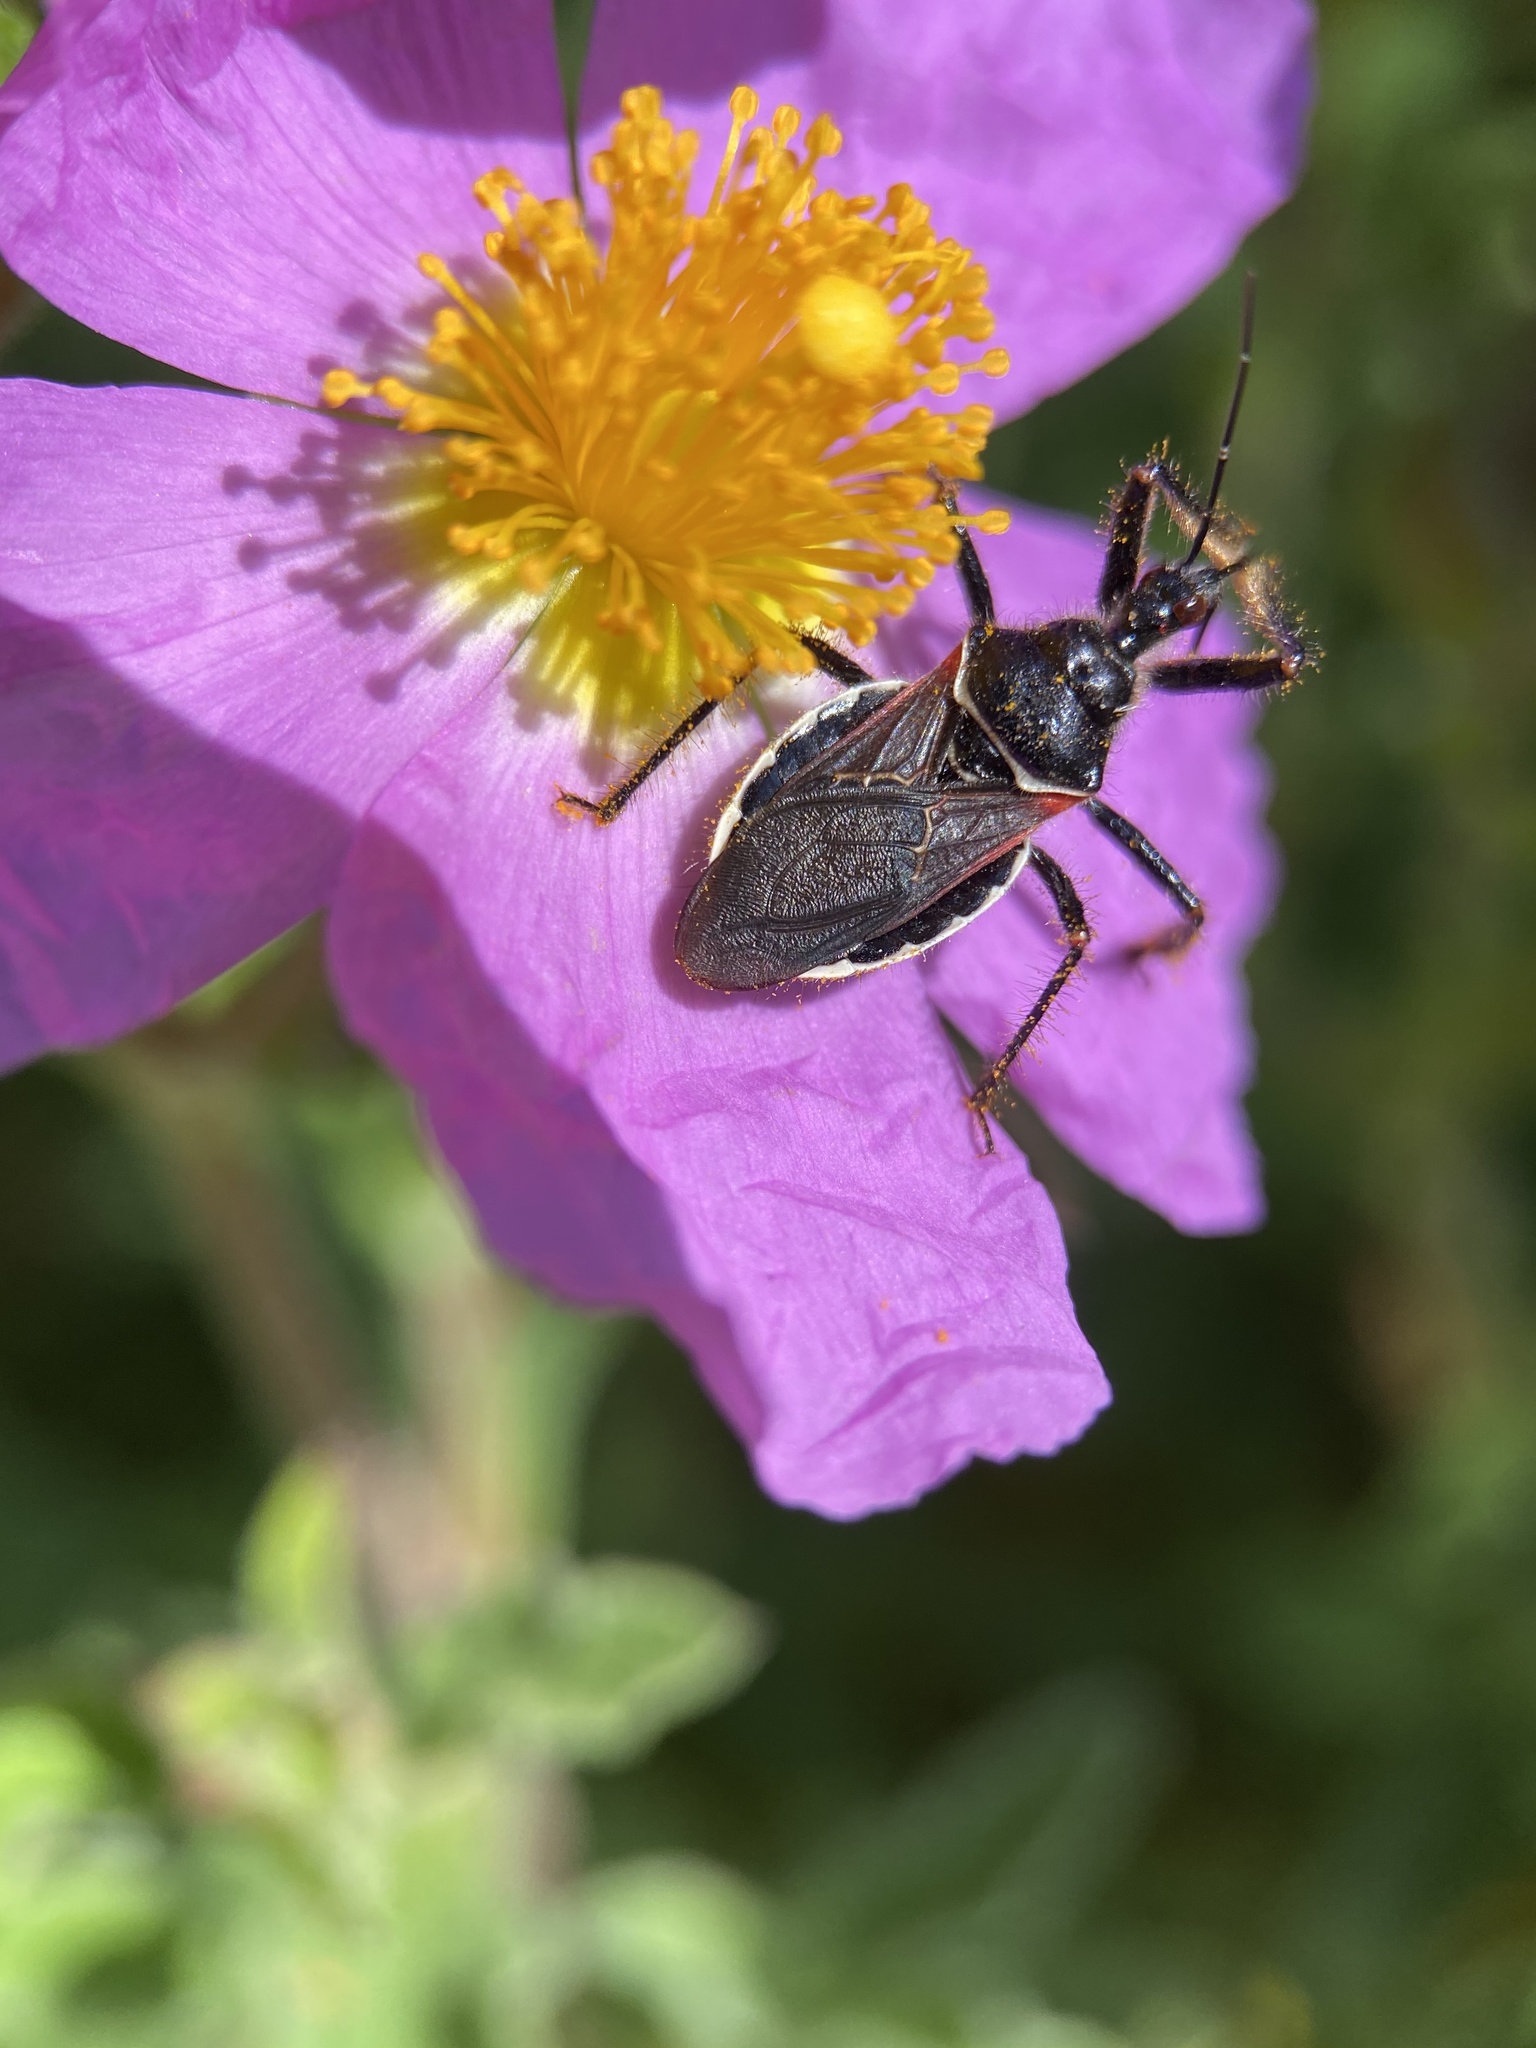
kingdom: Animalia
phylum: Arthropoda
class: Insecta
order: Hemiptera
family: Reduviidae
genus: Apiomerus
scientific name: Apiomerus californicus
